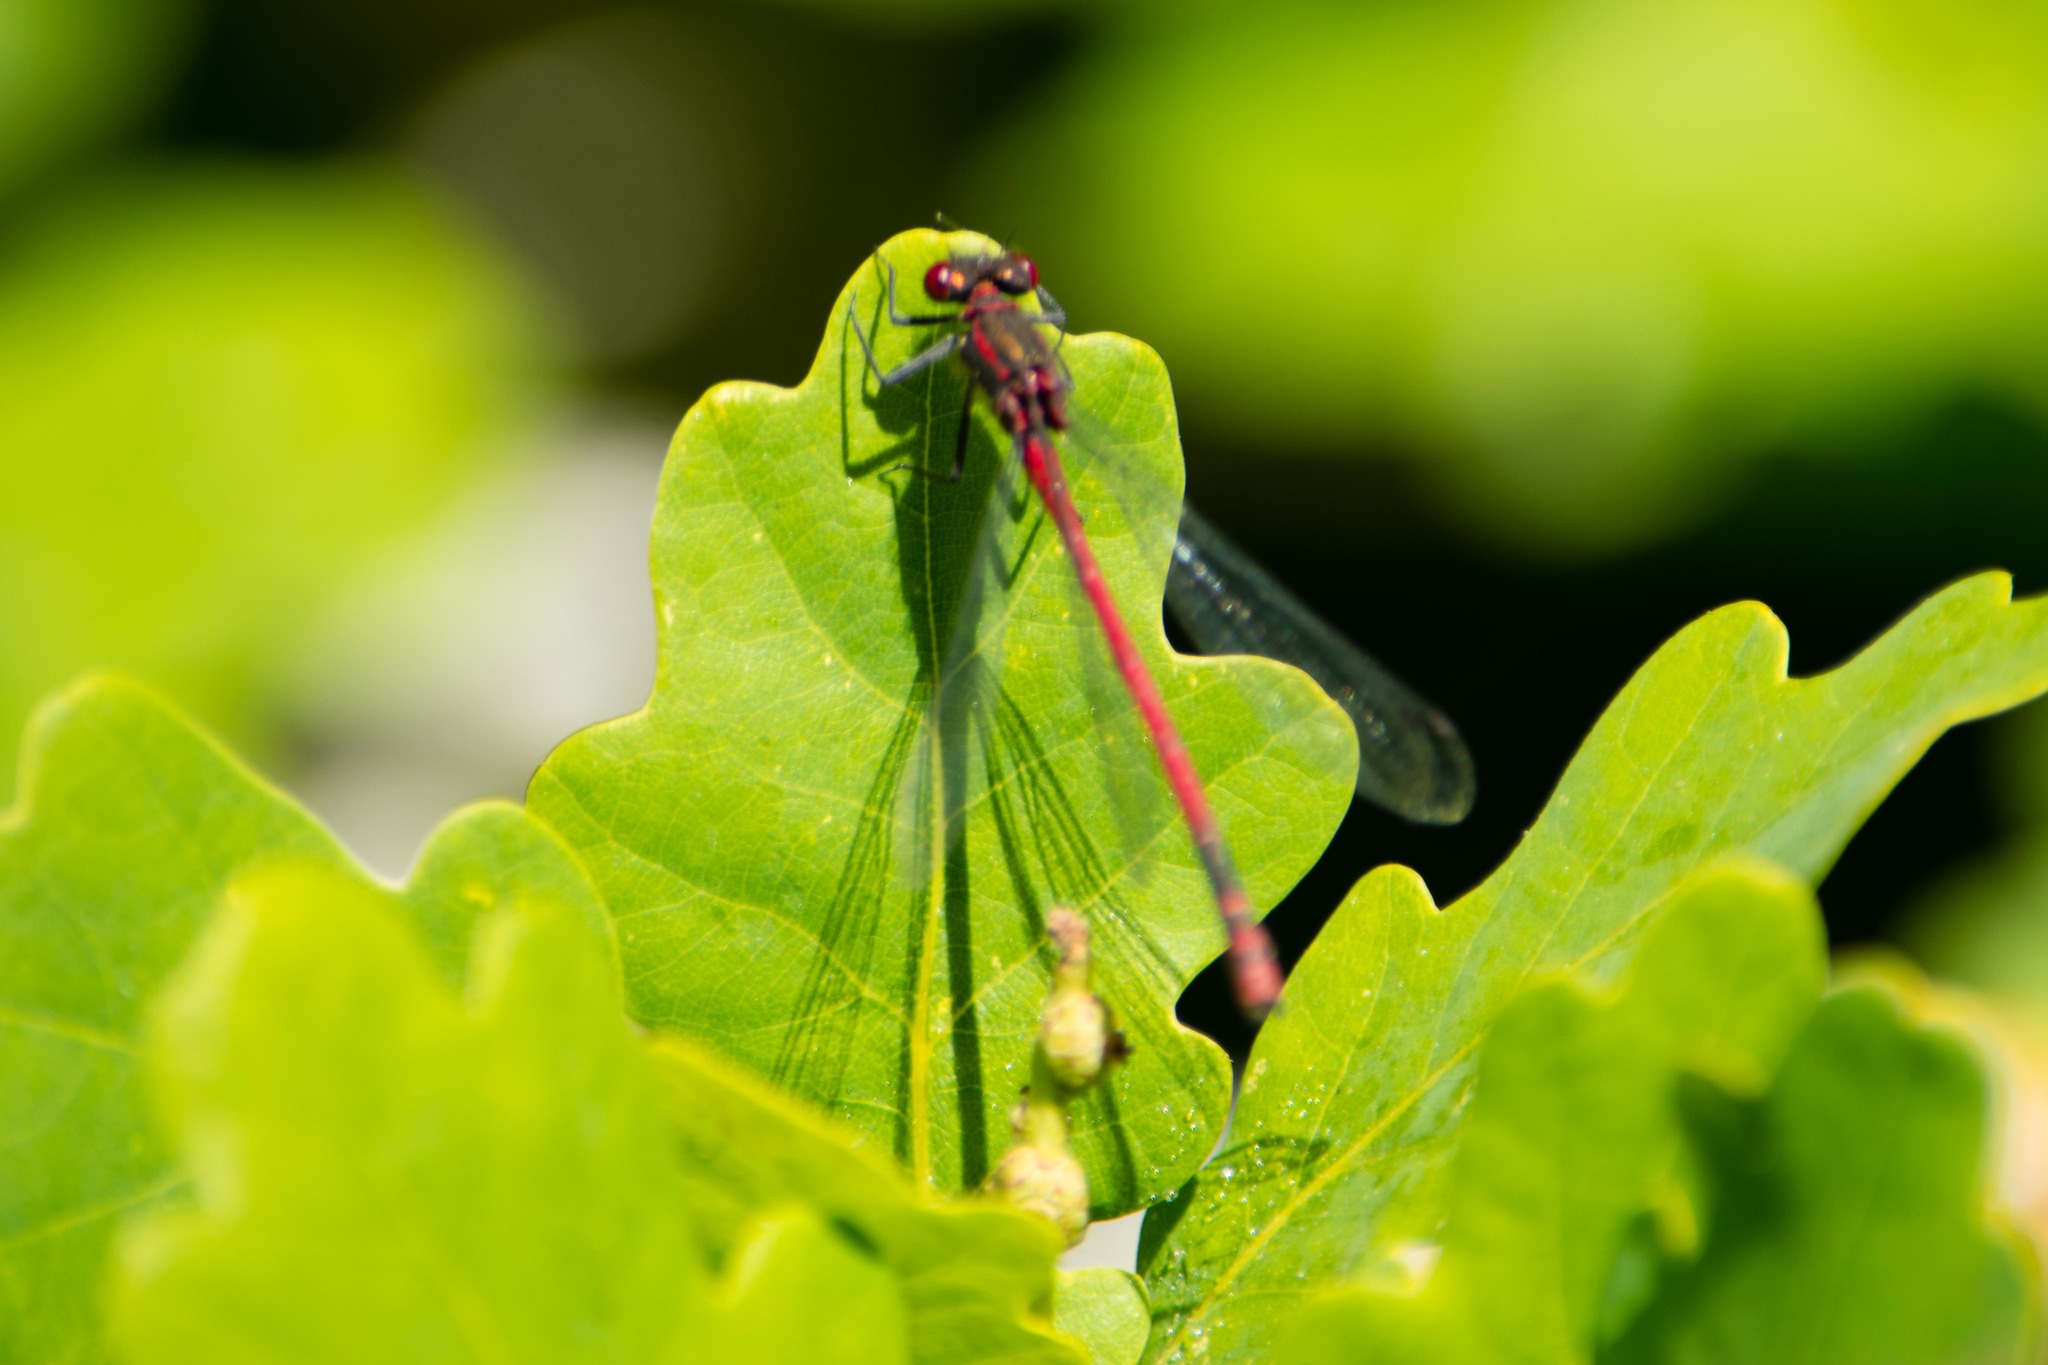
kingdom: Animalia
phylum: Arthropoda
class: Insecta
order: Odonata
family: Coenagrionidae
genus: Pyrrhosoma
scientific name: Pyrrhosoma nymphula
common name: Large red damsel
